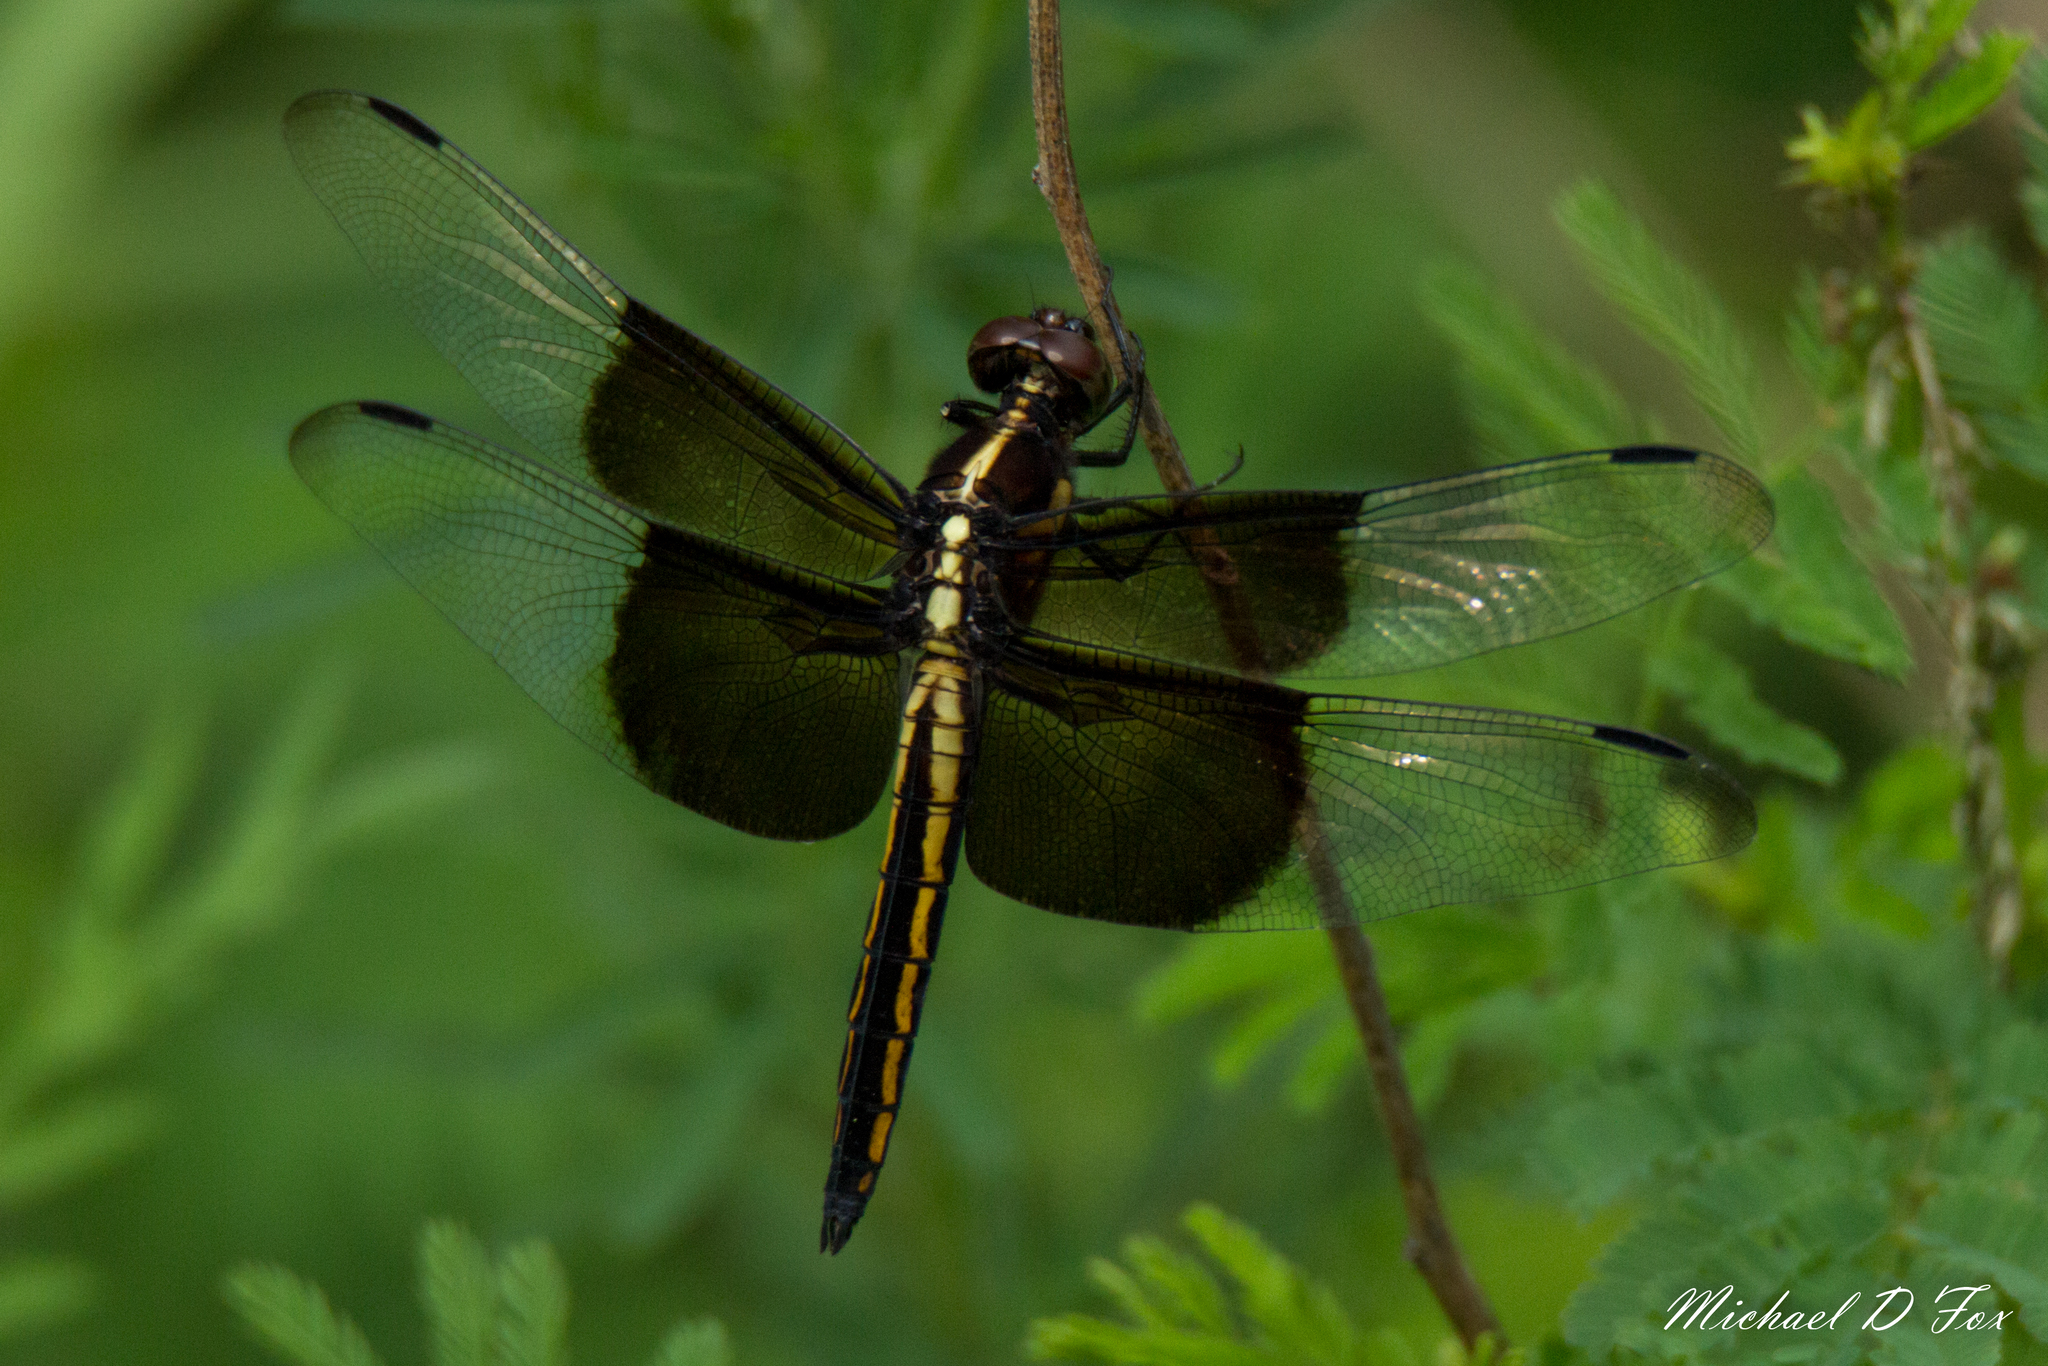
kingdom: Animalia
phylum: Arthropoda
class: Insecta
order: Odonata
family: Libellulidae
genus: Libellula
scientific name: Libellula luctuosa
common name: Widow skimmer
